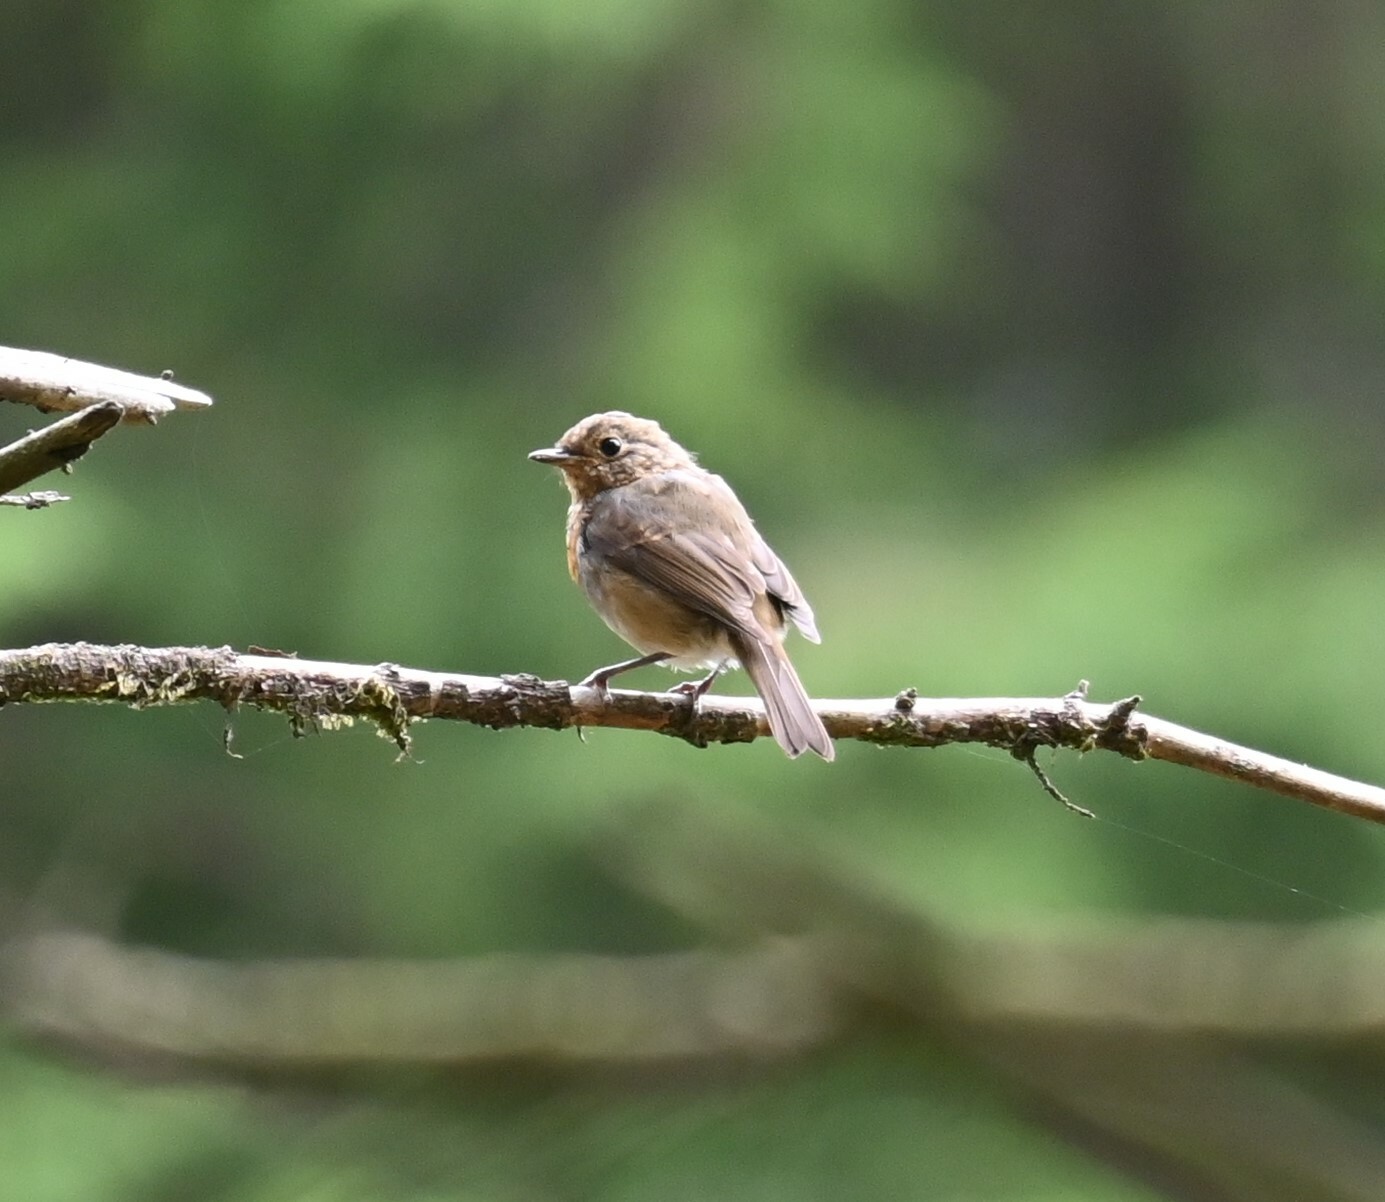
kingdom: Animalia
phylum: Chordata
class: Aves
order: Passeriformes
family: Muscicapidae
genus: Erithacus
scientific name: Erithacus rubecula
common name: European robin
